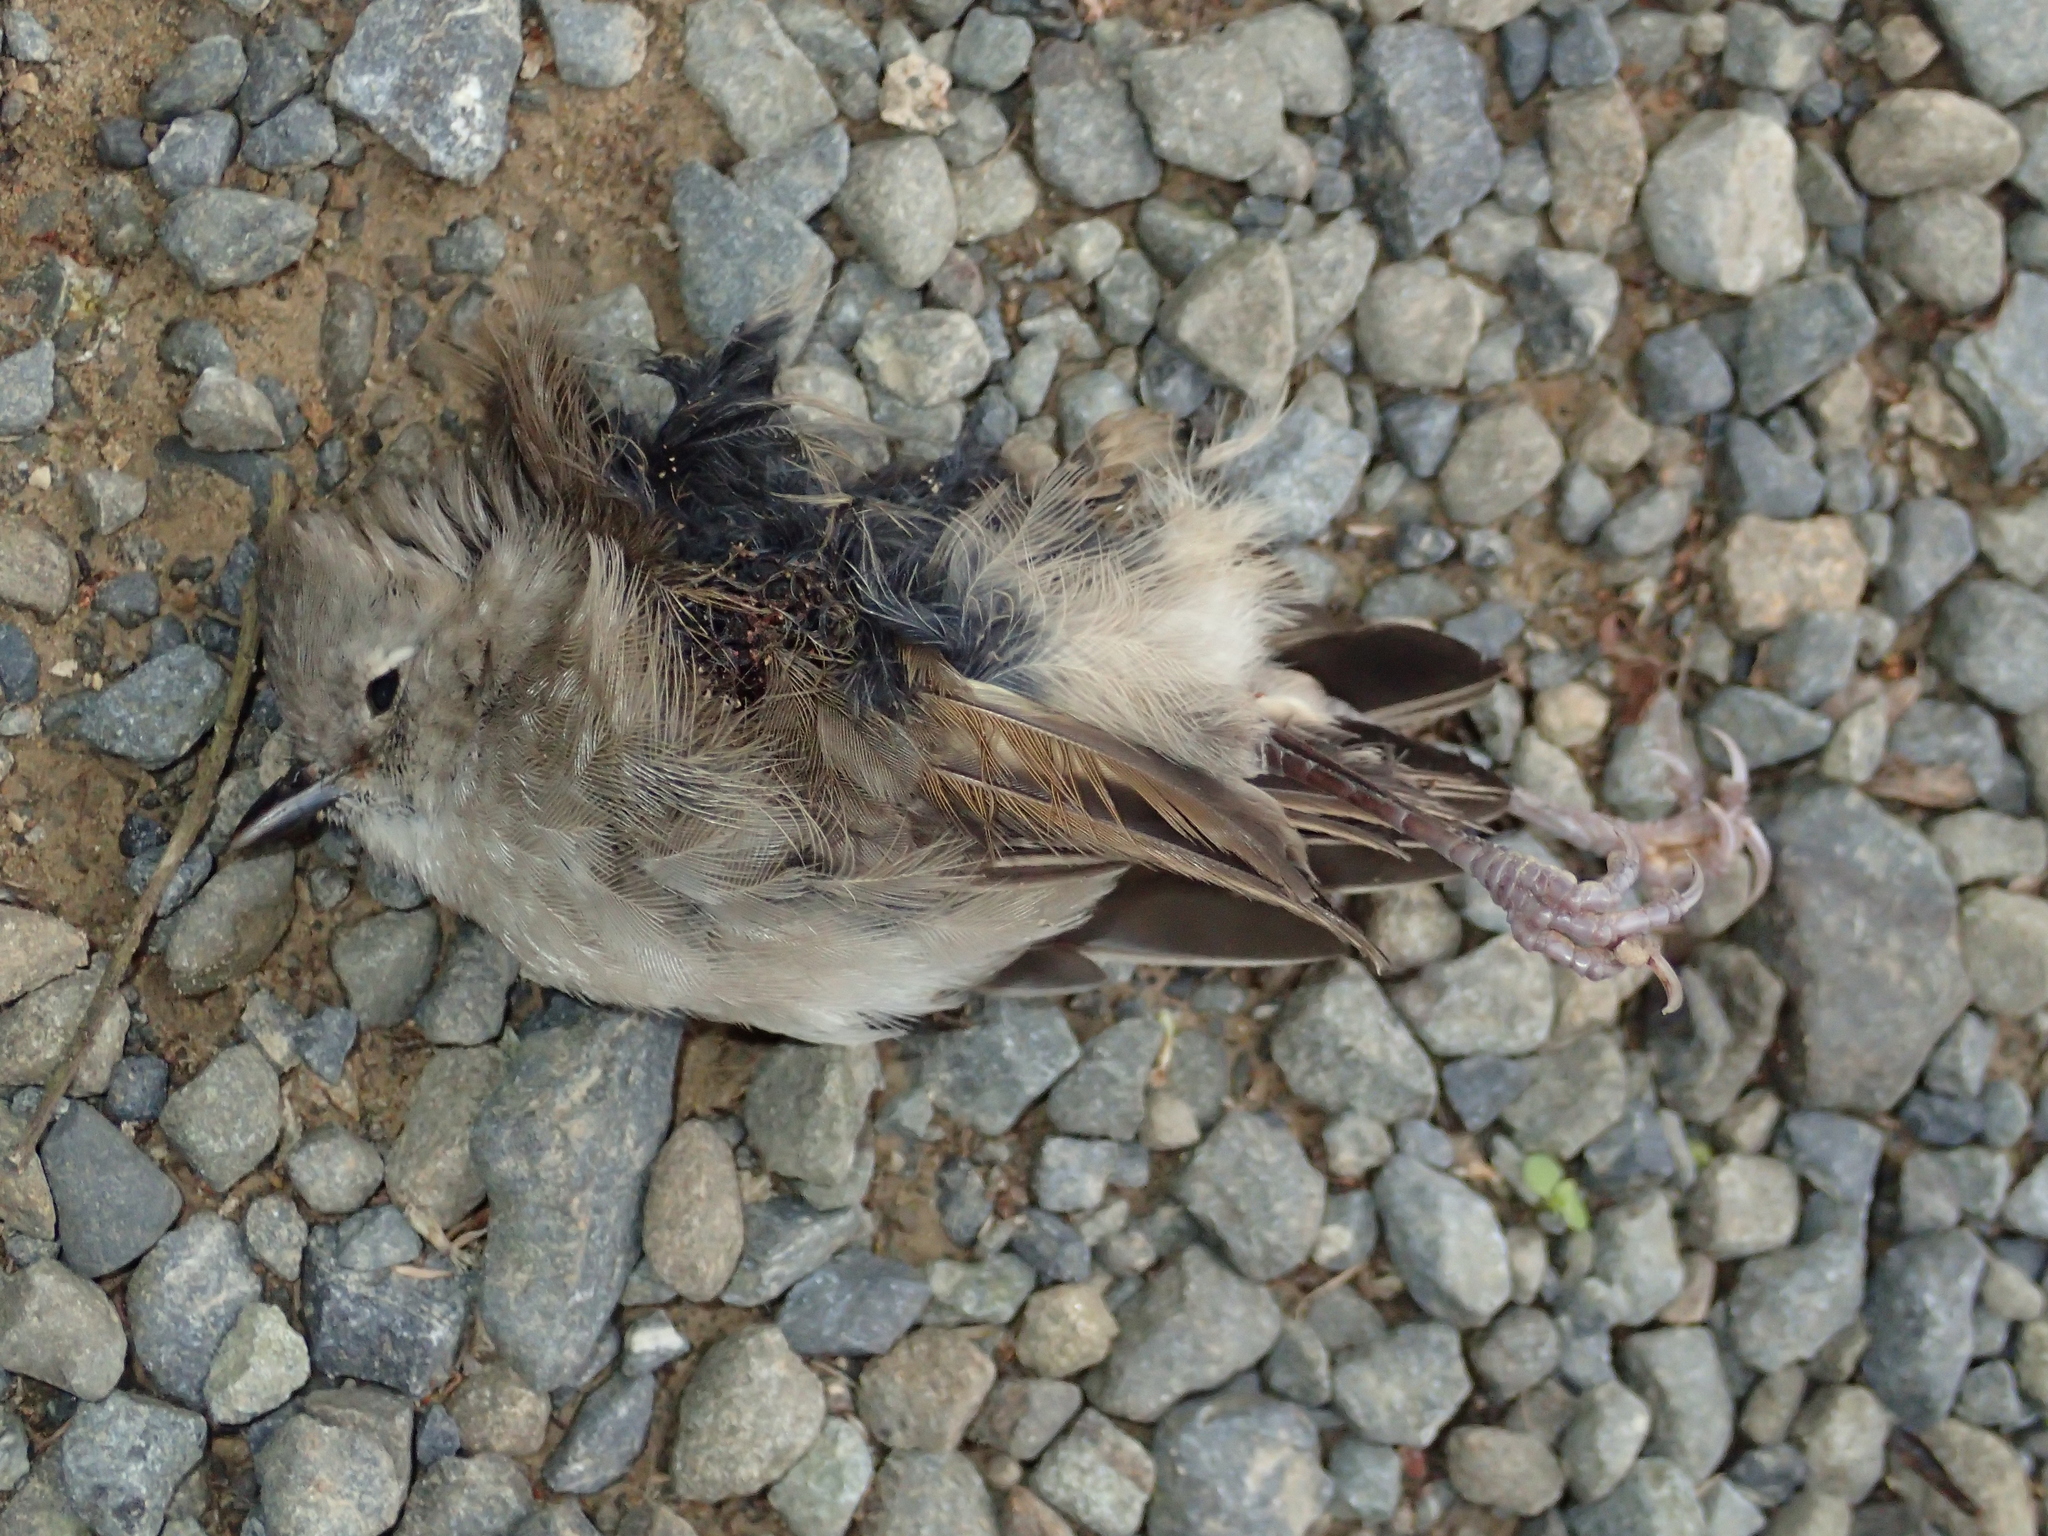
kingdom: Animalia
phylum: Chordata
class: Aves
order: Passeriformes
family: Acanthizidae
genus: Gerygone
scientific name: Gerygone igata
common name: Grey gerygone
